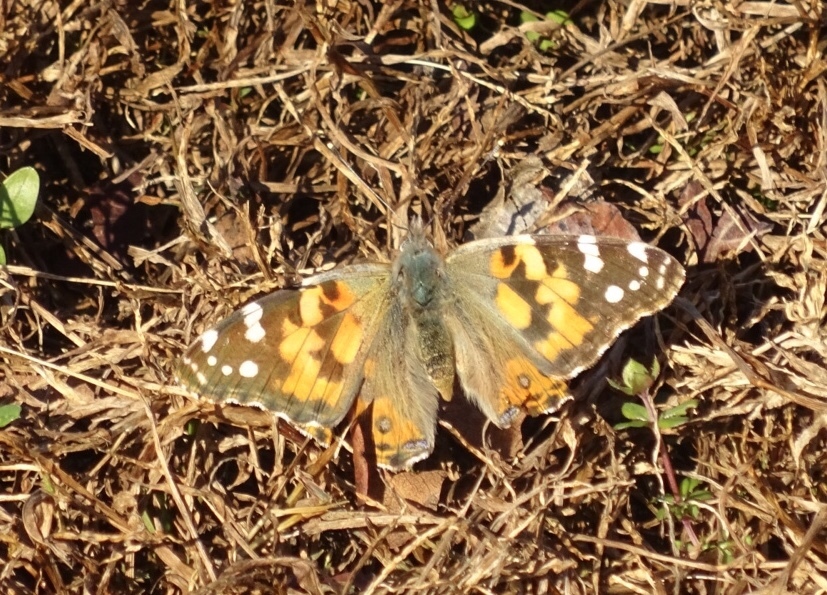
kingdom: Animalia
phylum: Arthropoda
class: Insecta
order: Lepidoptera
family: Nymphalidae
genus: Vanessa
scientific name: Vanessa cardui
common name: Painted lady
